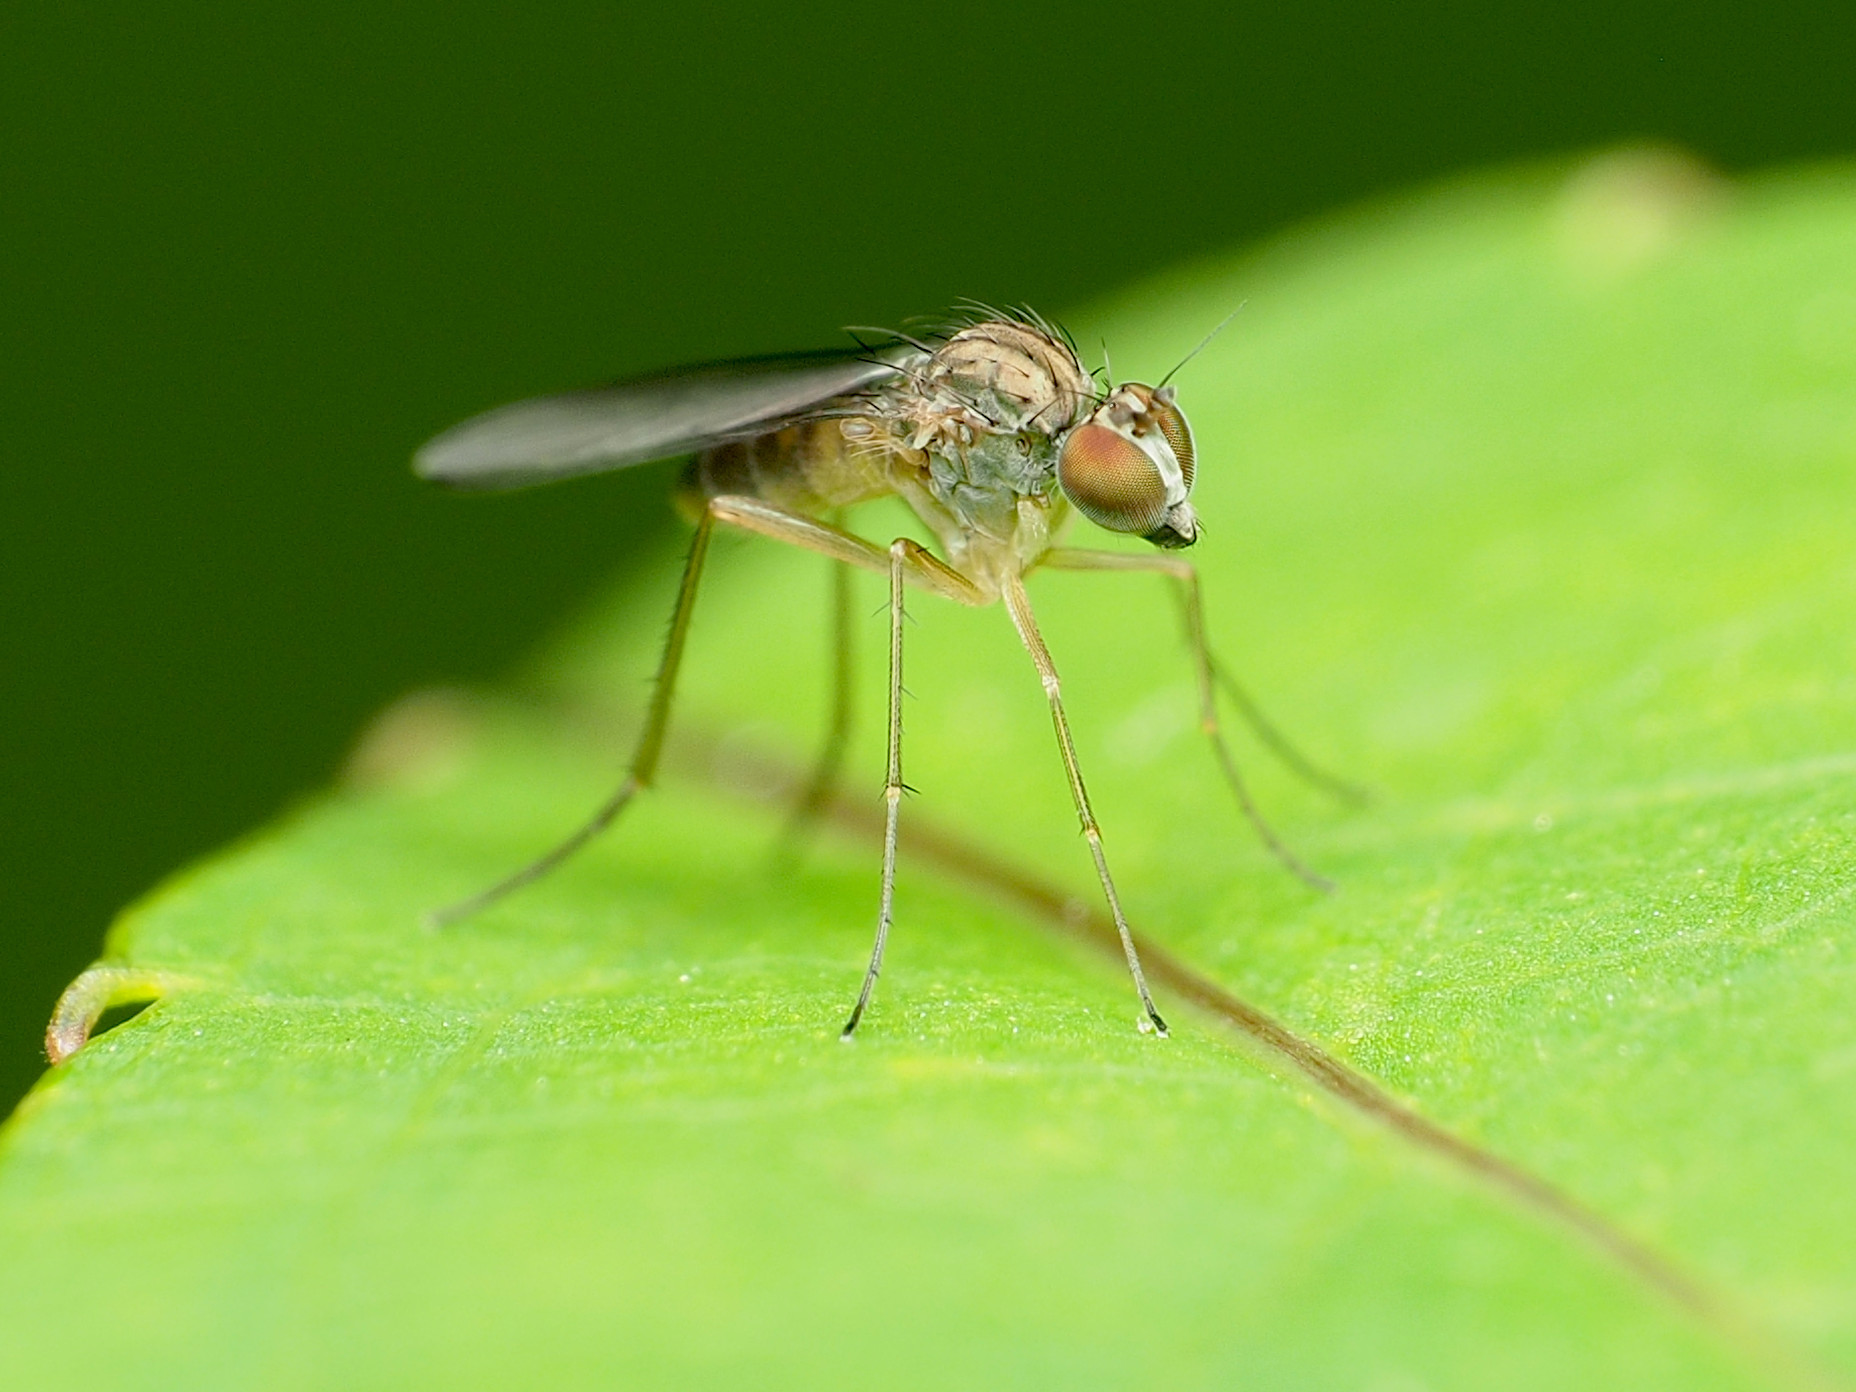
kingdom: Animalia
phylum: Arthropoda
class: Insecta
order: Diptera
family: Dolichopodidae
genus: Sympycnus
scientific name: Sympycnus lineatus
